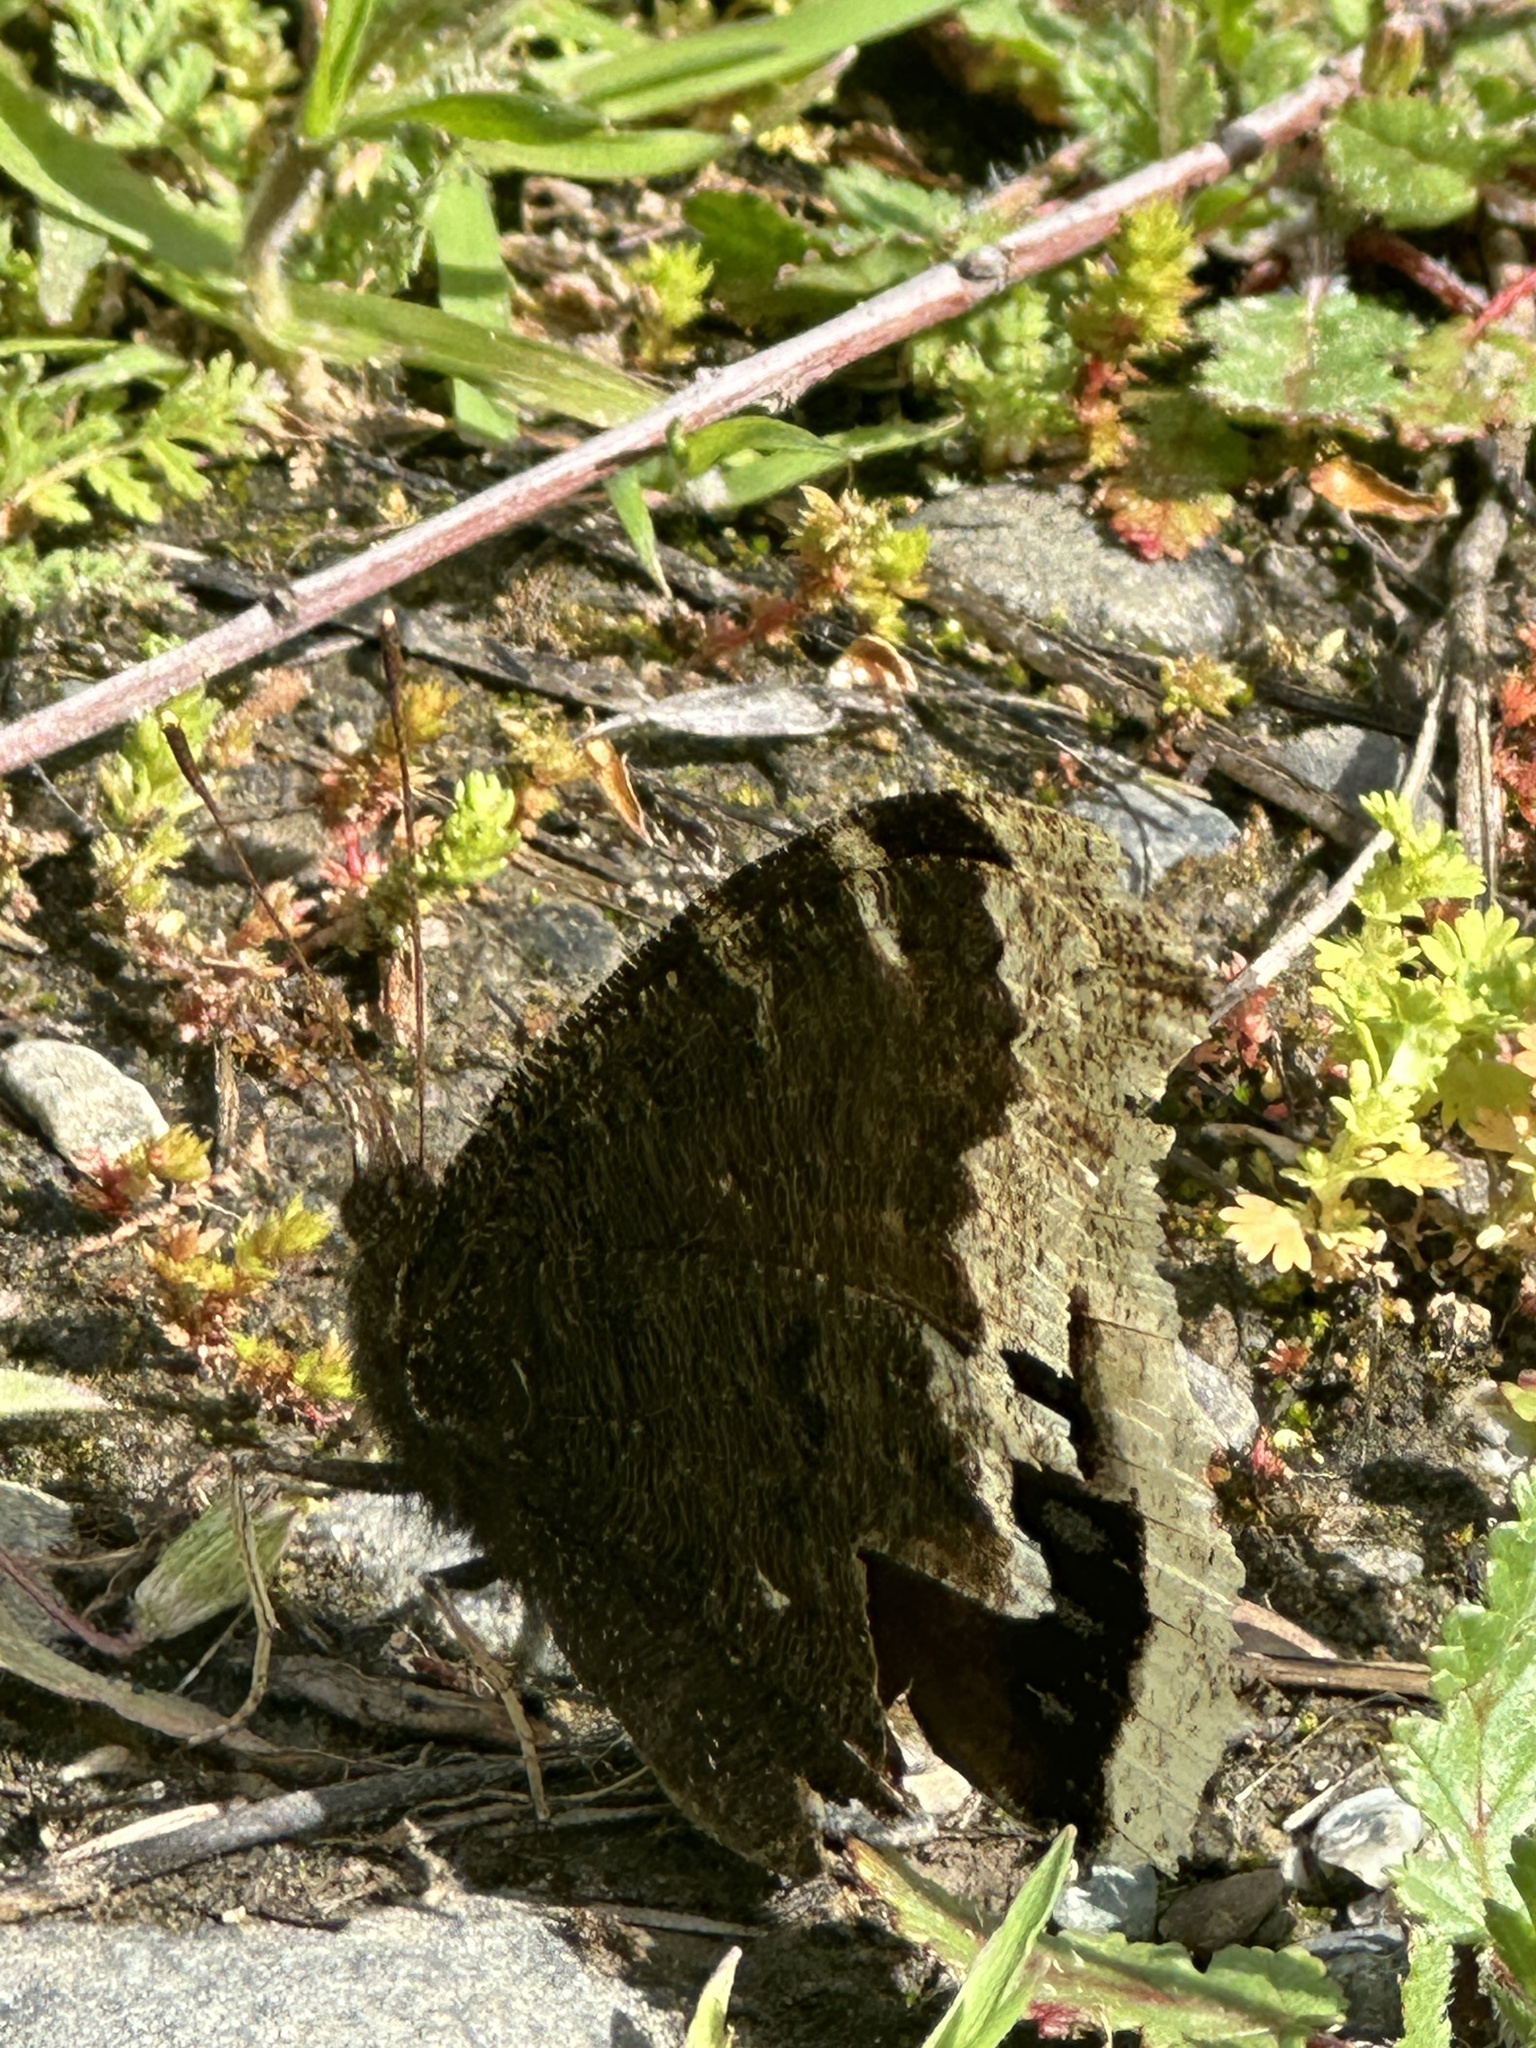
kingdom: Animalia
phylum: Arthropoda
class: Insecta
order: Lepidoptera
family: Nymphalidae
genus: Nymphalis
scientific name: Nymphalis antiopa
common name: Camberwell beauty
